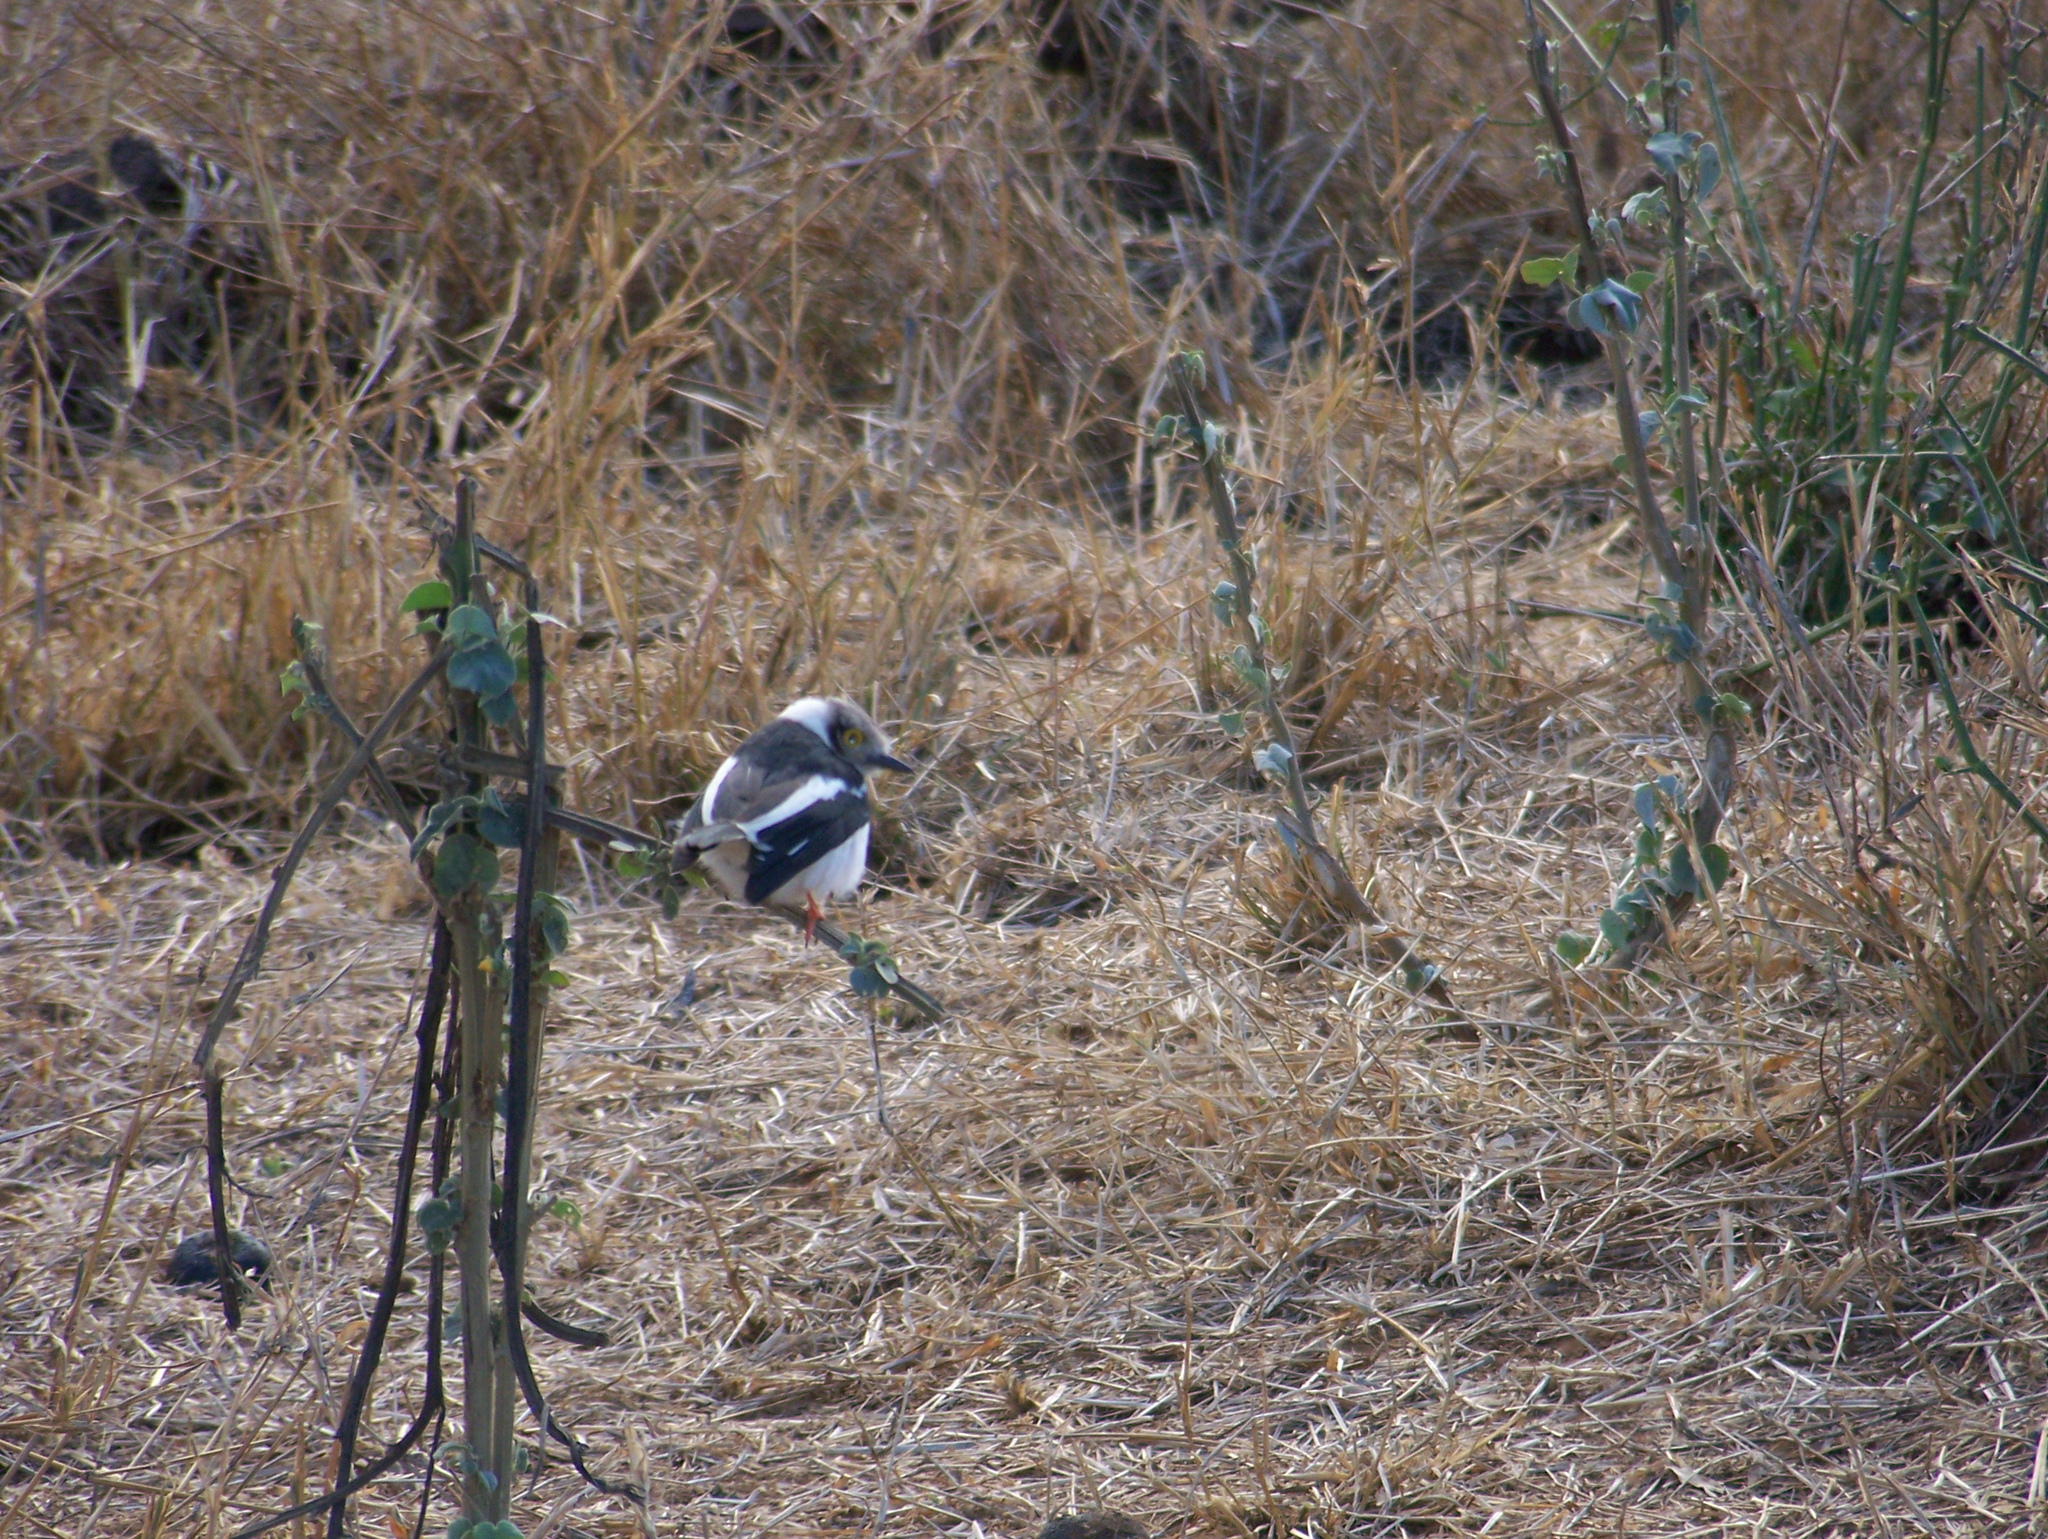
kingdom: Animalia
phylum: Chordata
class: Aves
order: Passeriformes
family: Prionopidae
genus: Prionops
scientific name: Prionops plumatus
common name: White-crested helmetshrike
